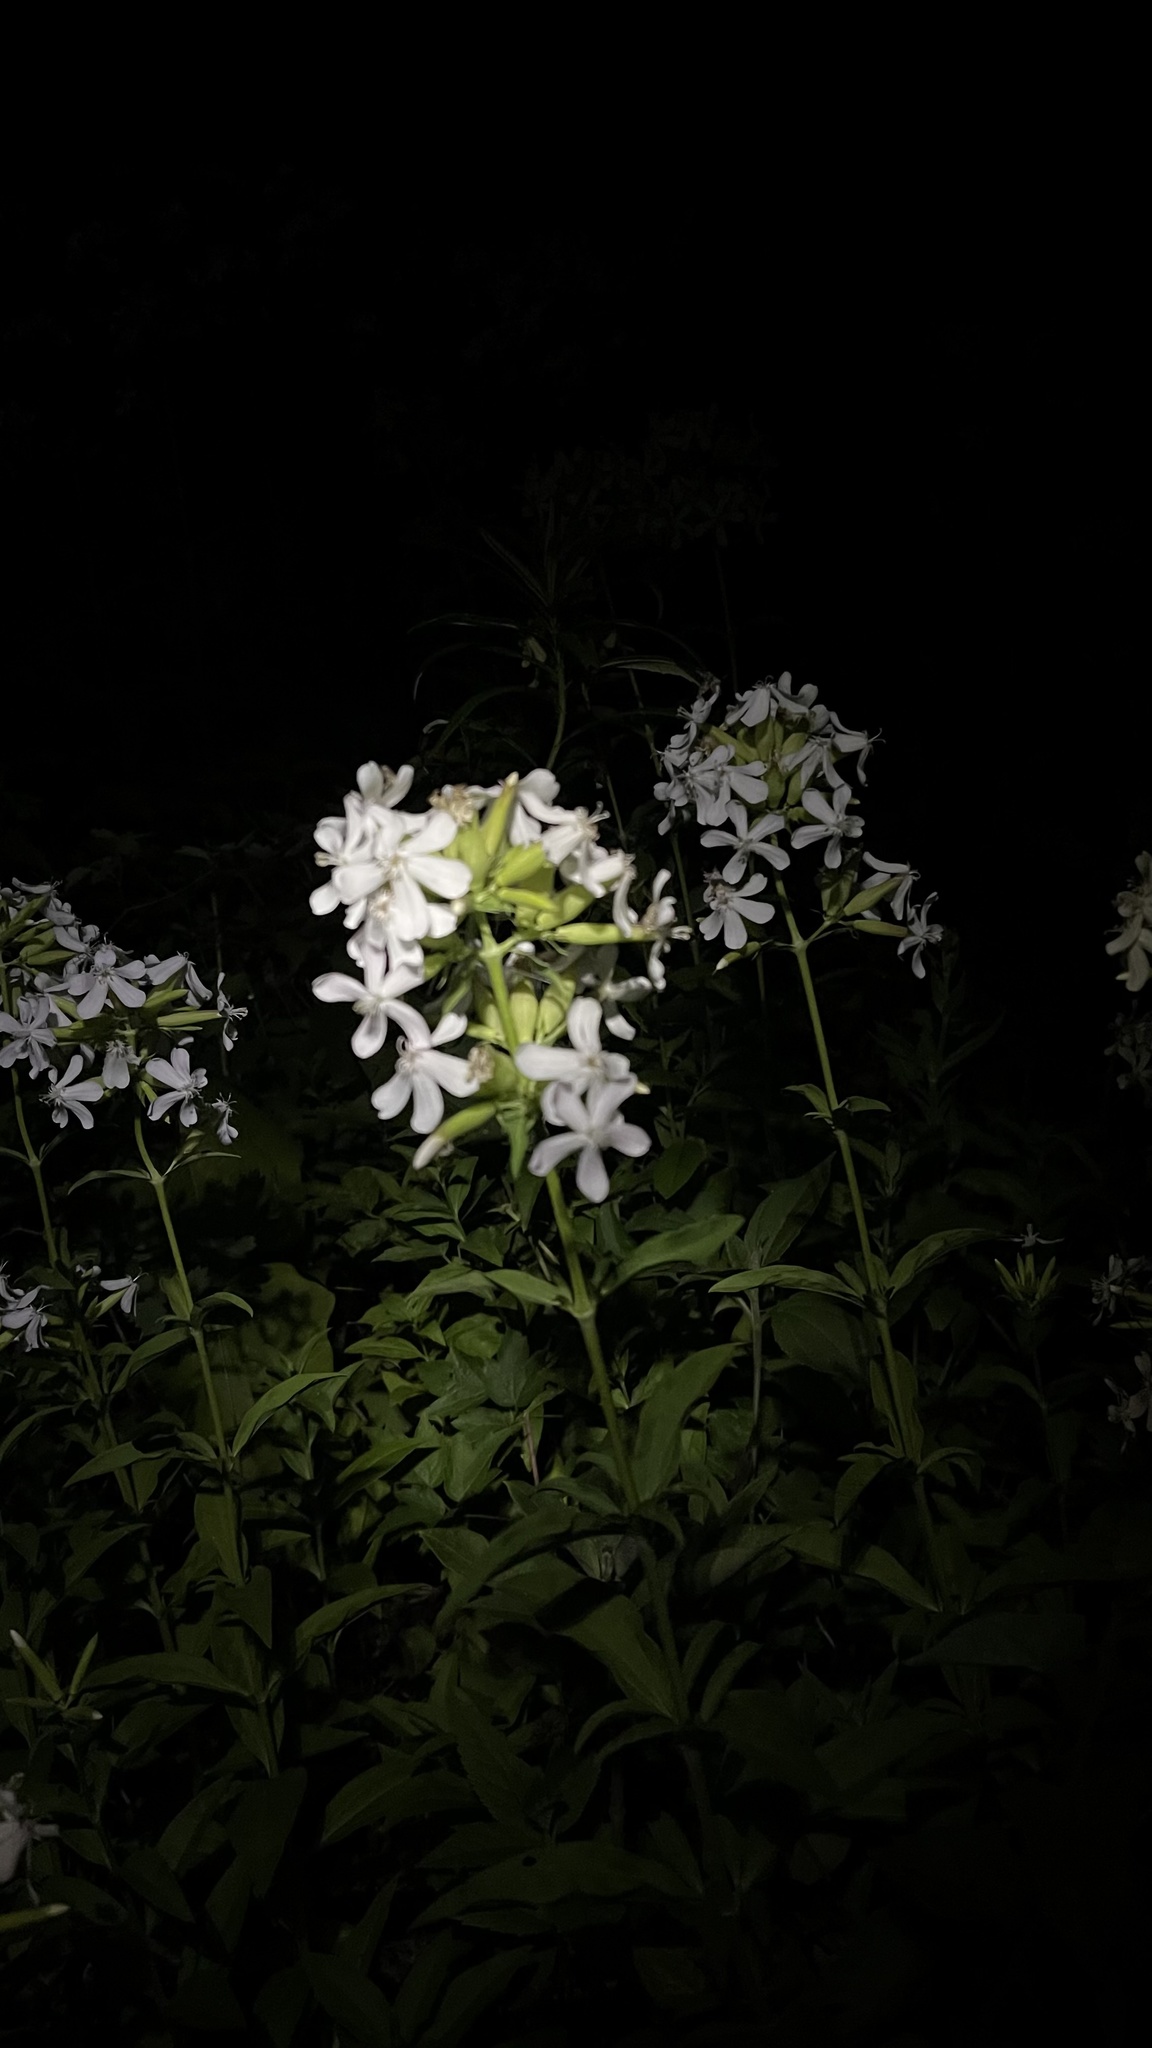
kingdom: Plantae
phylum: Tracheophyta
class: Magnoliopsida
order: Caryophyllales
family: Caryophyllaceae
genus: Saponaria
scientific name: Saponaria officinalis
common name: Soapwort
